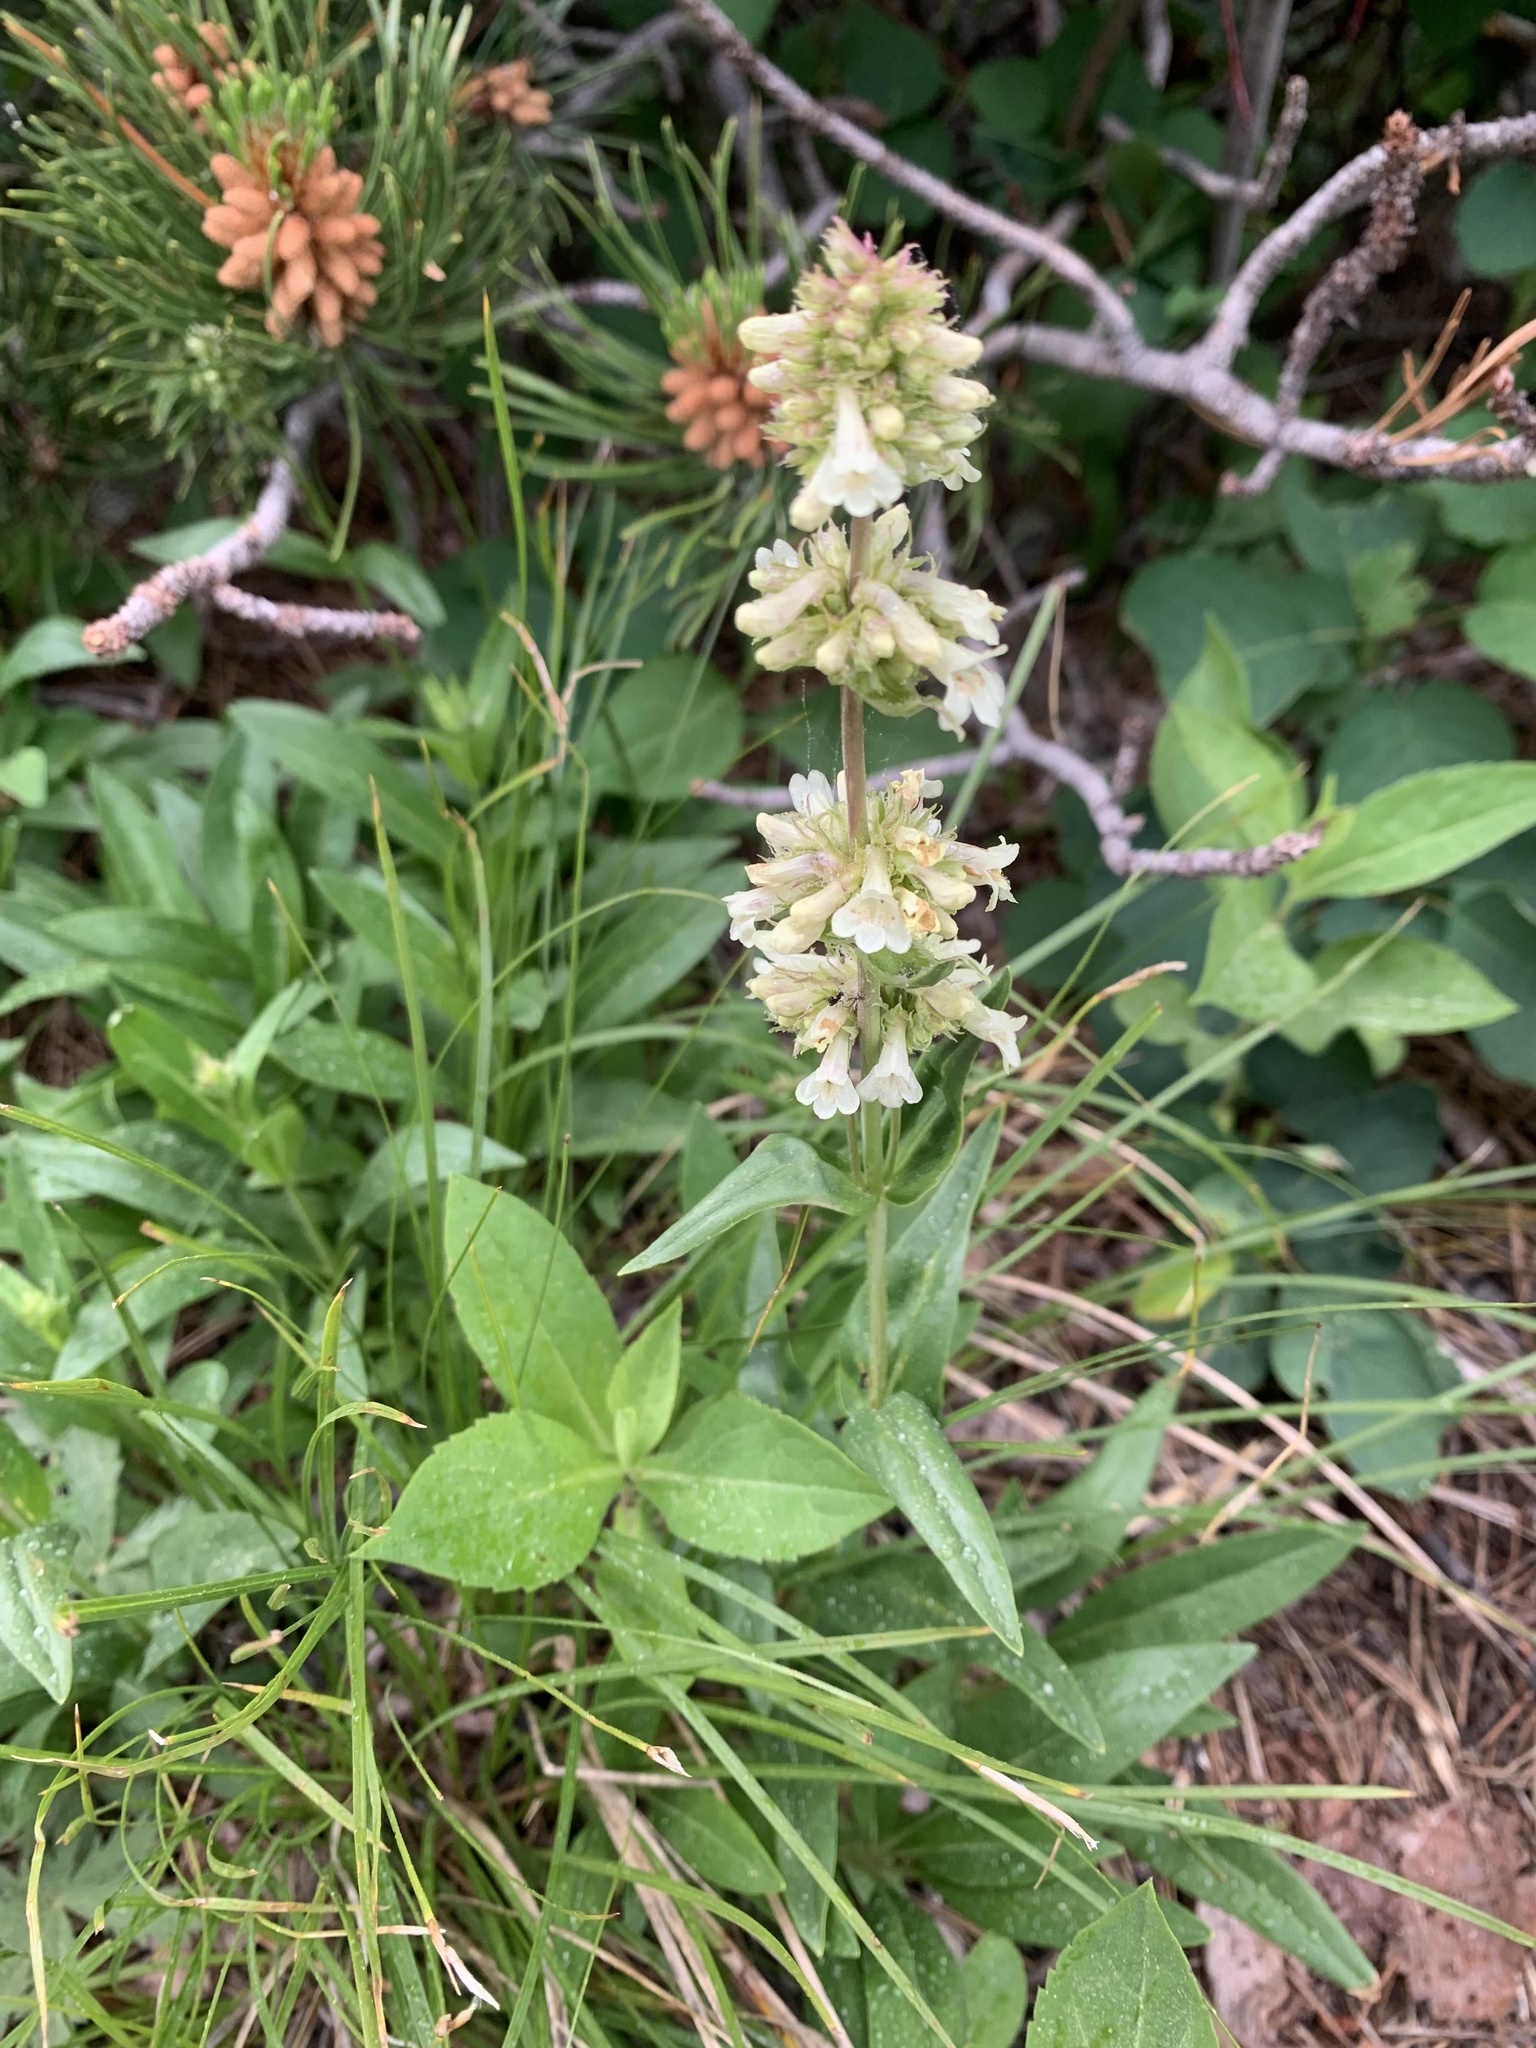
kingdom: Plantae
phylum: Tracheophyta
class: Magnoliopsida
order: Lamiales
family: Plantaginaceae
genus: Penstemon
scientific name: Penstemon confertus
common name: Lesser yellow beardtongue
